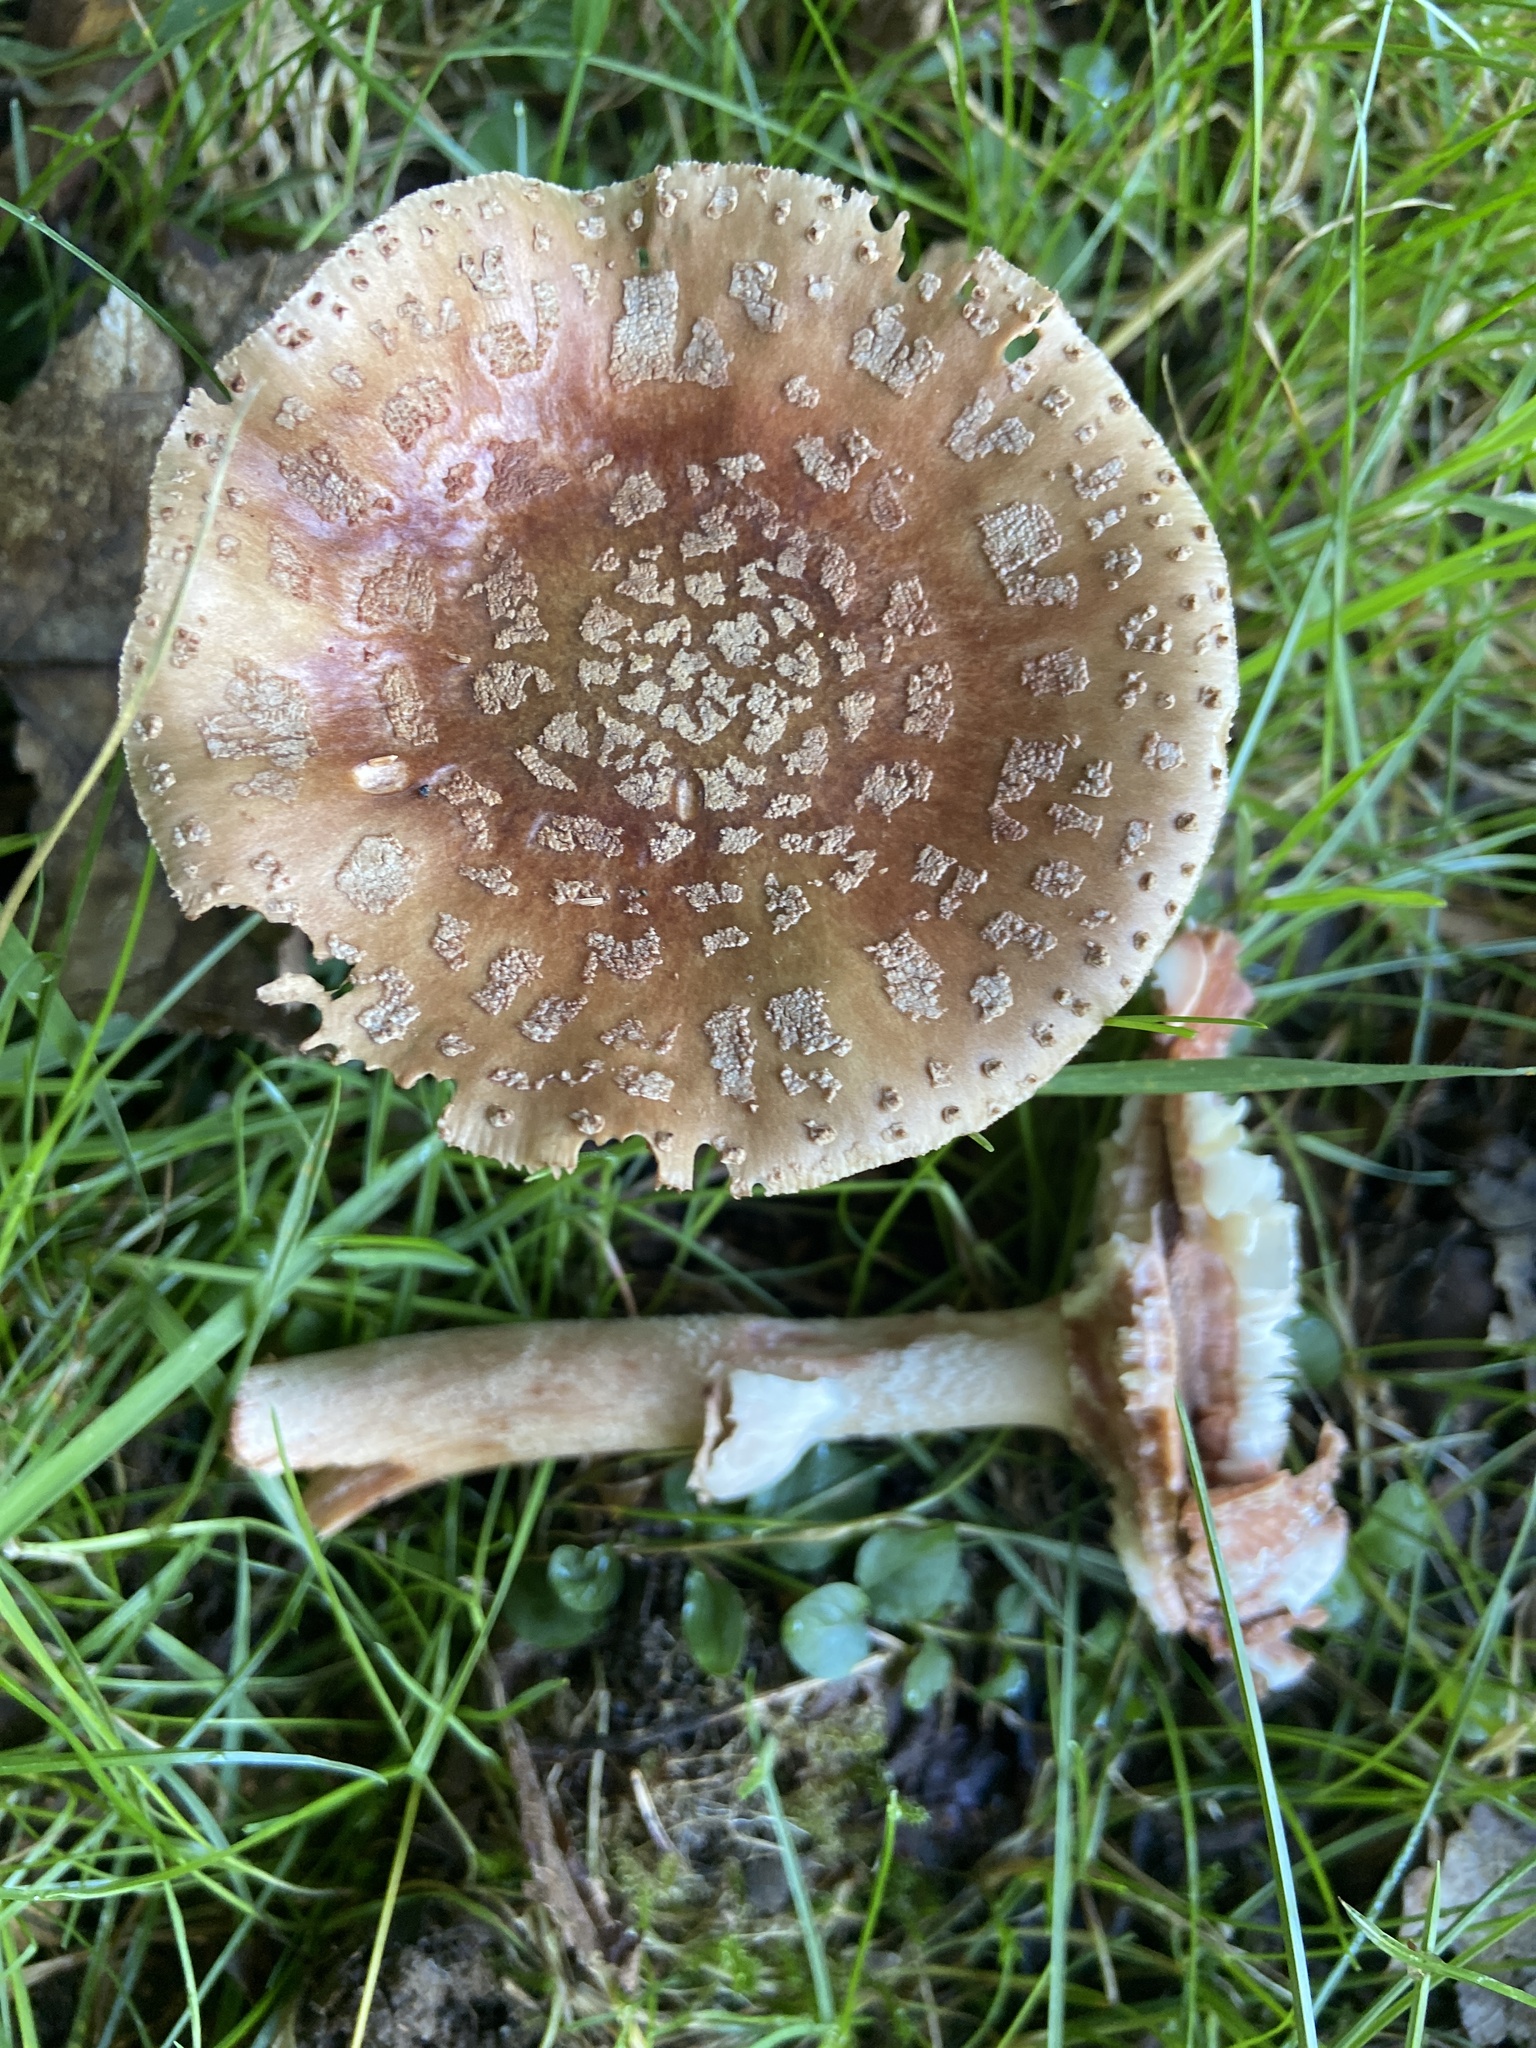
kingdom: Fungi
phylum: Basidiomycota
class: Agaricomycetes
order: Agaricales
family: Amanitaceae
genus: Amanita
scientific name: Amanita rubescens
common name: Blusher
